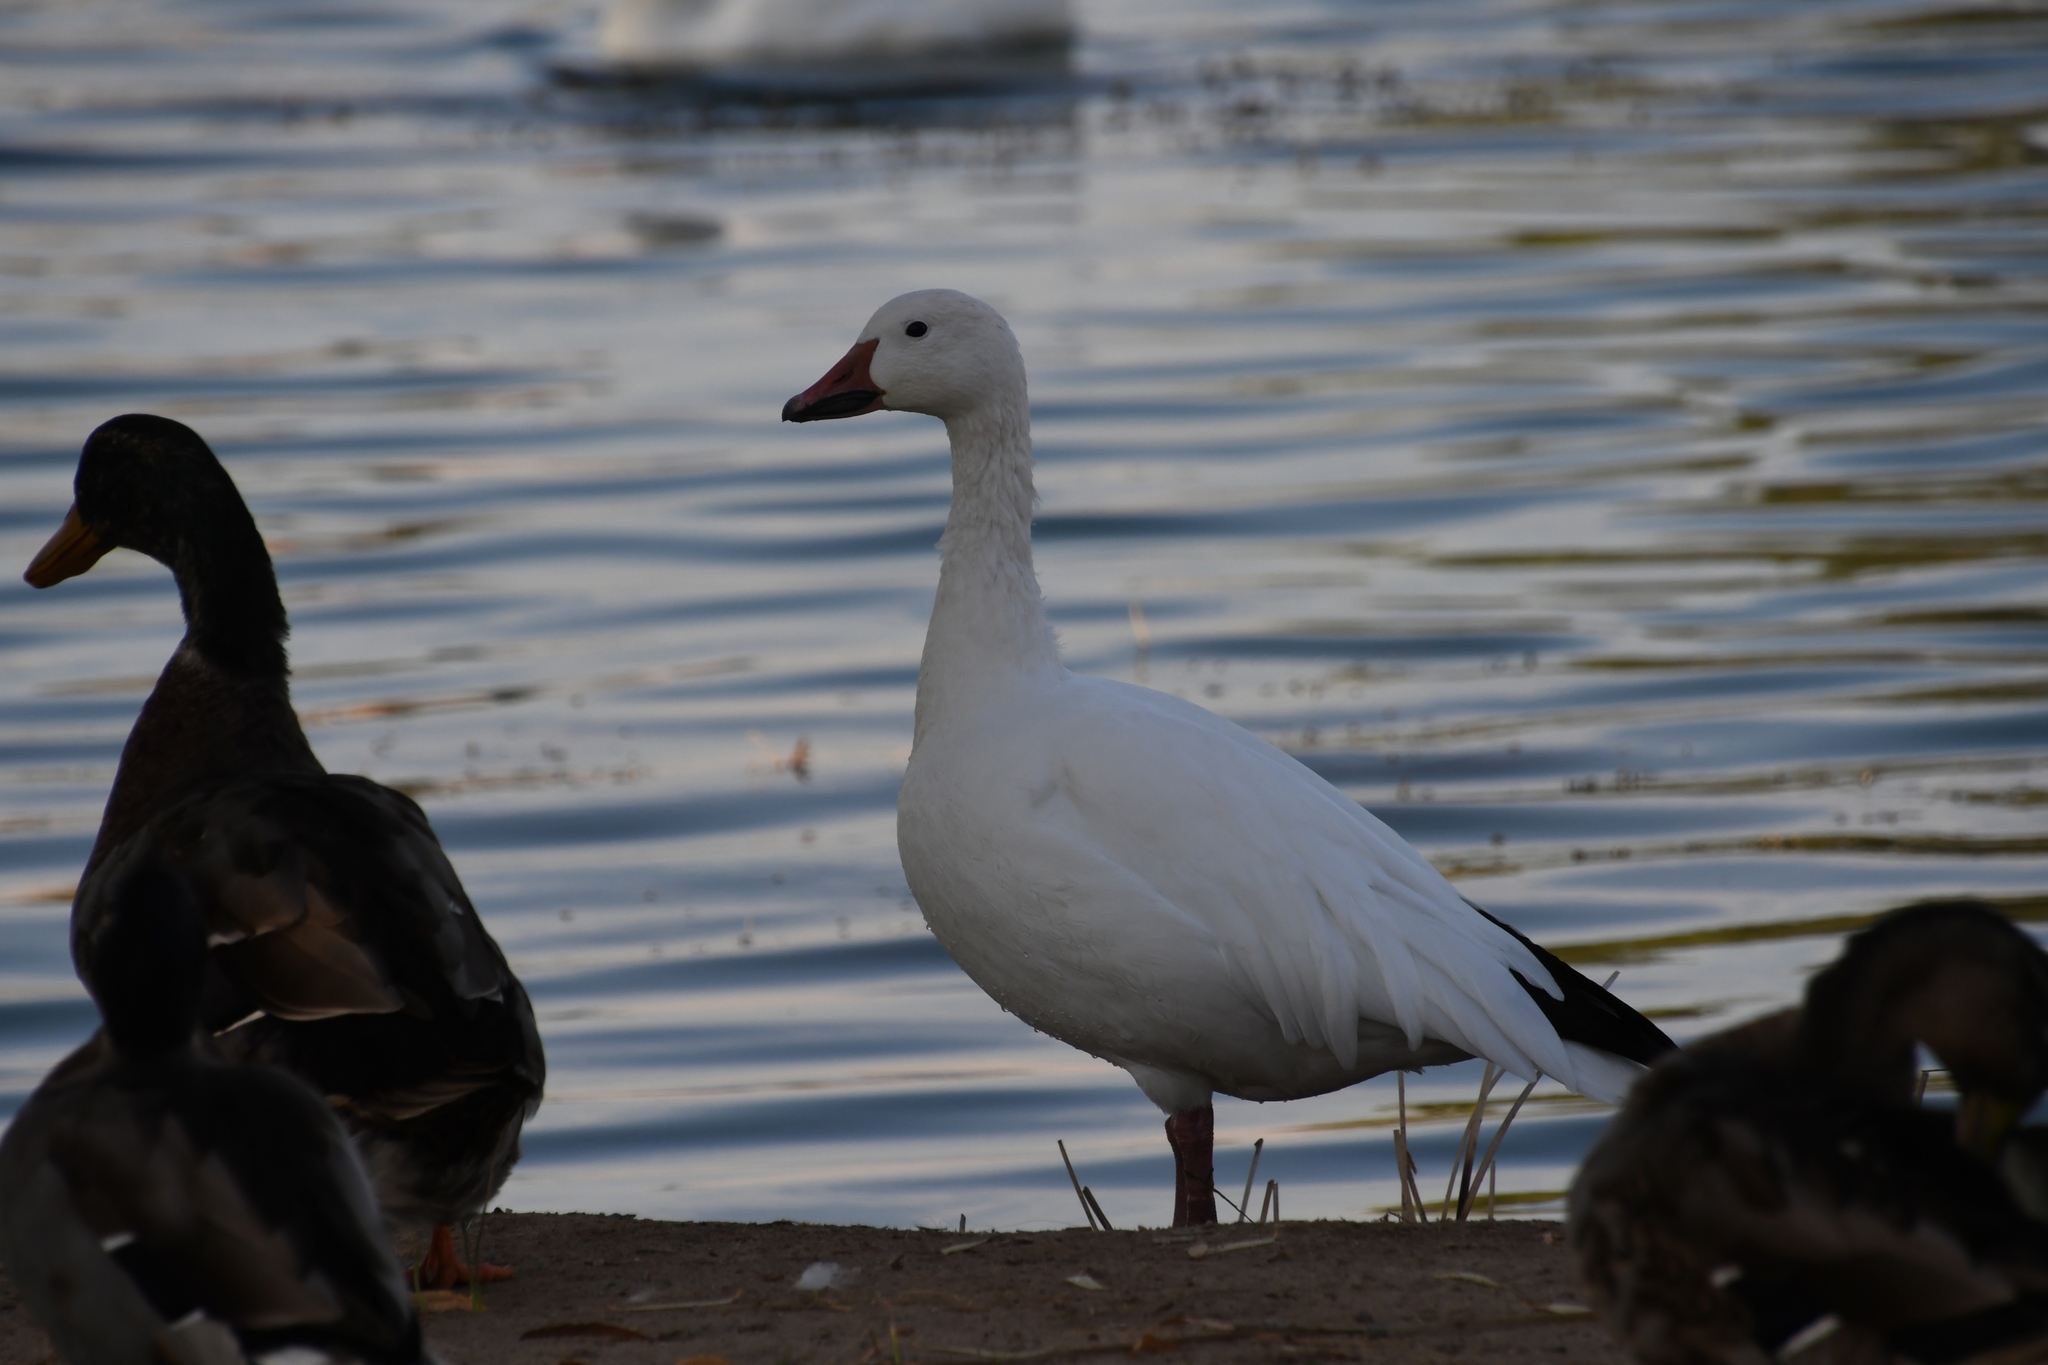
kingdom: Animalia
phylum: Chordata
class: Aves
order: Anseriformes
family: Anatidae
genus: Anser
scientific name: Anser caerulescens
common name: Snow goose
